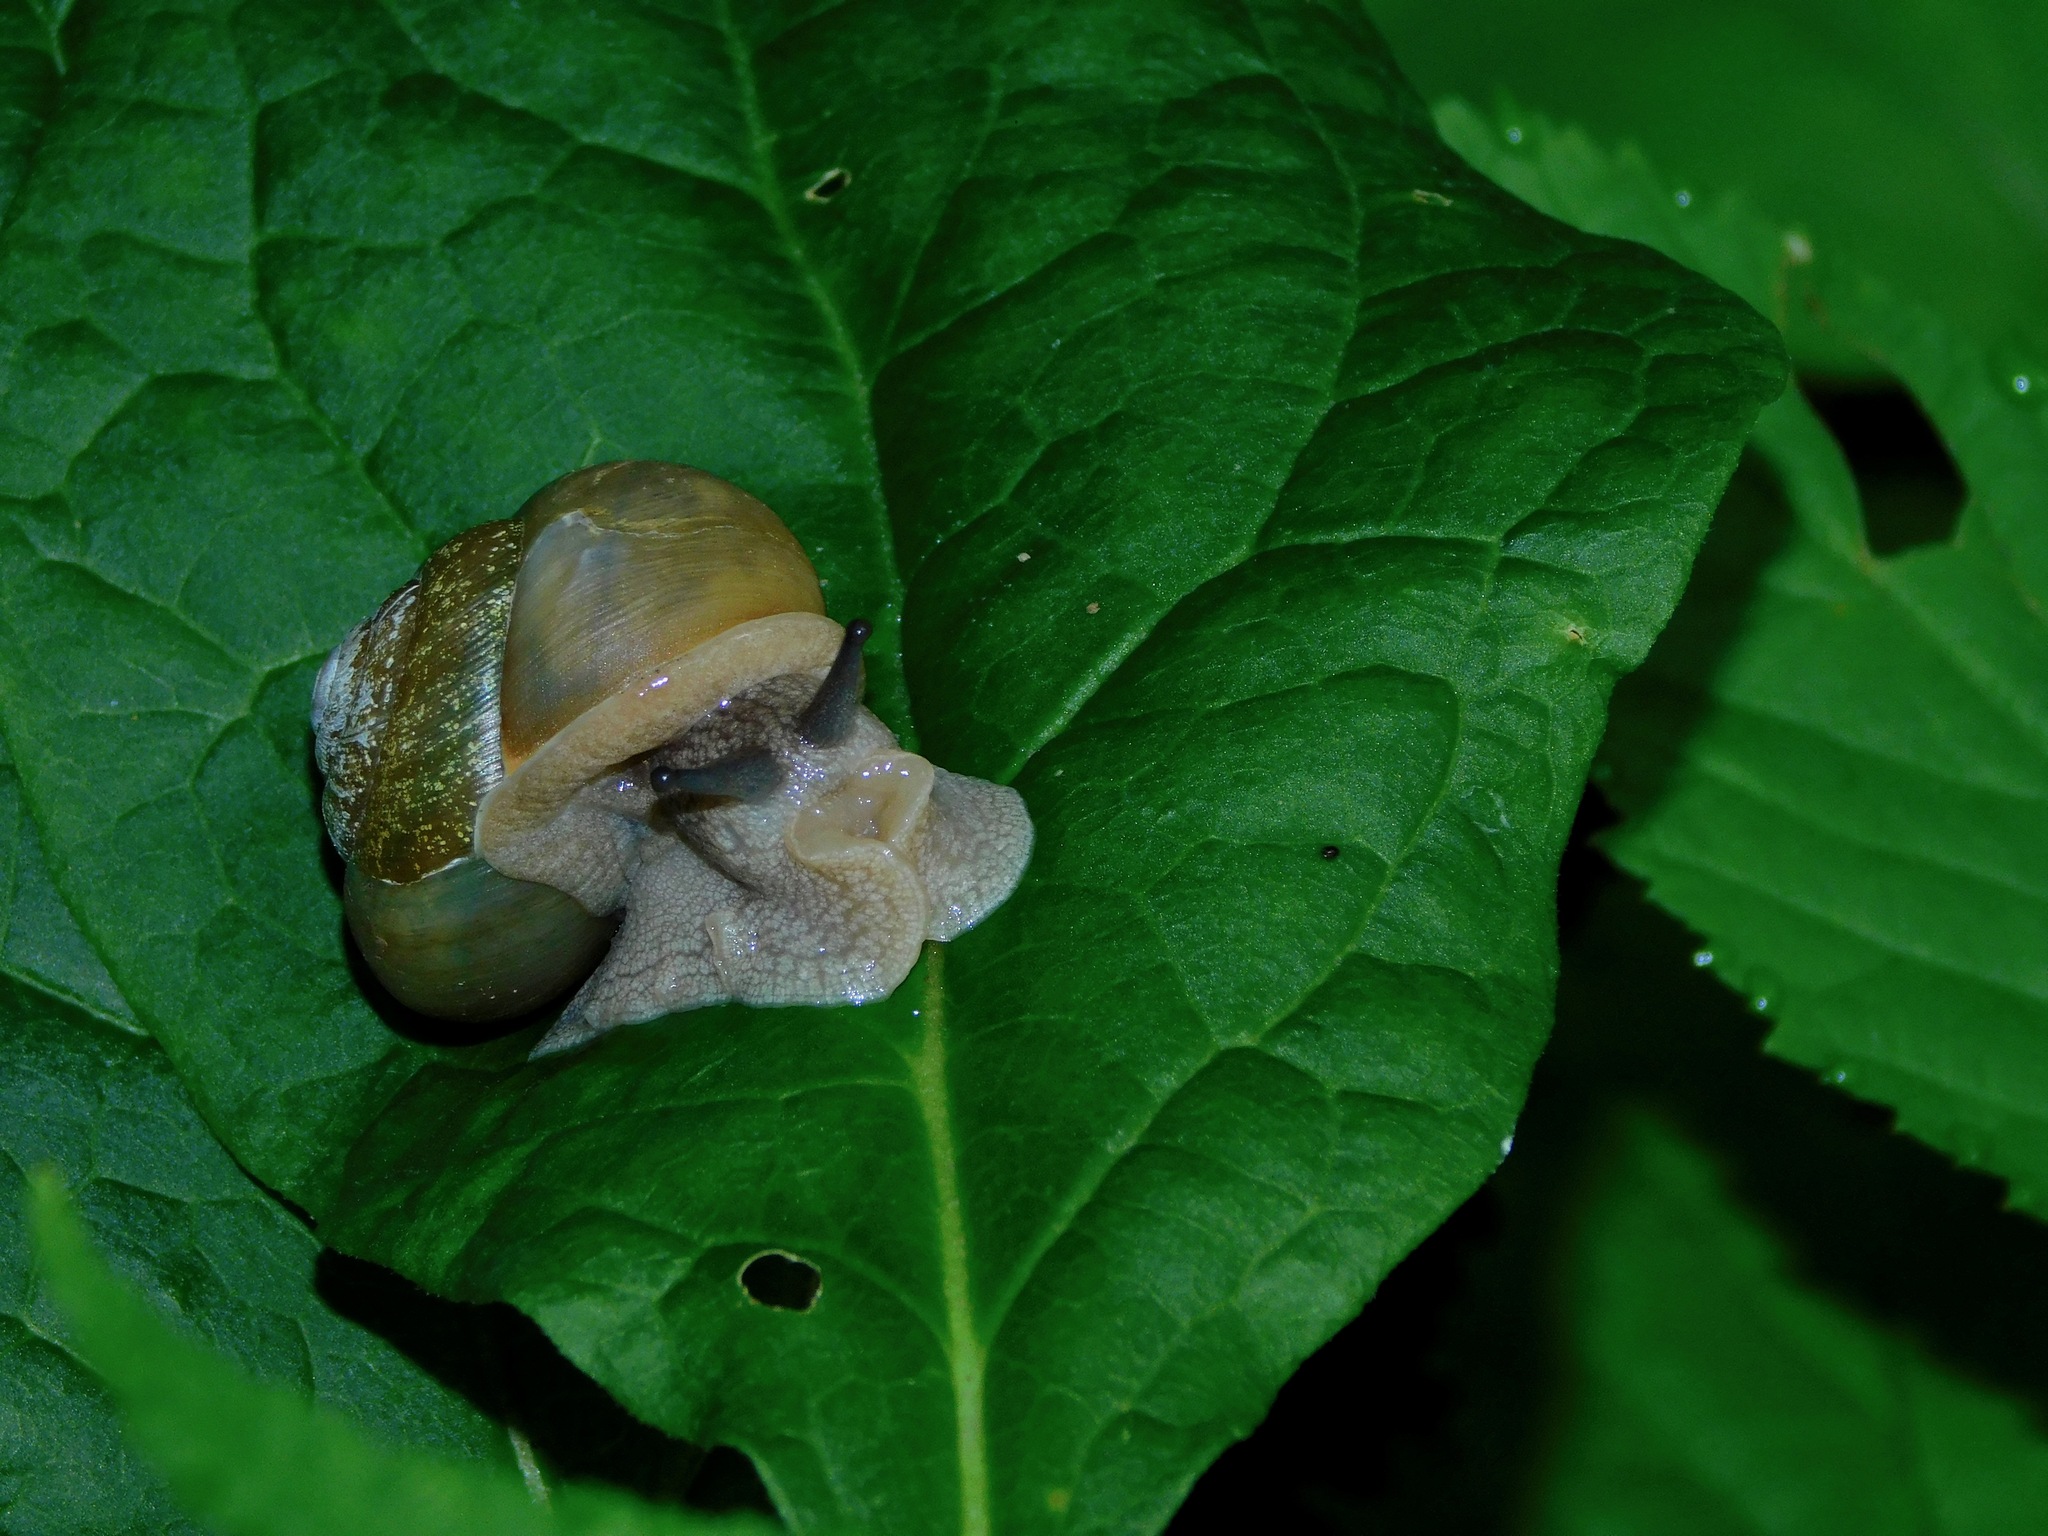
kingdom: Animalia
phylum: Mollusca
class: Gastropoda
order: Stylommatophora
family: Polygyridae
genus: Mesodon
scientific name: Mesodon normalis
